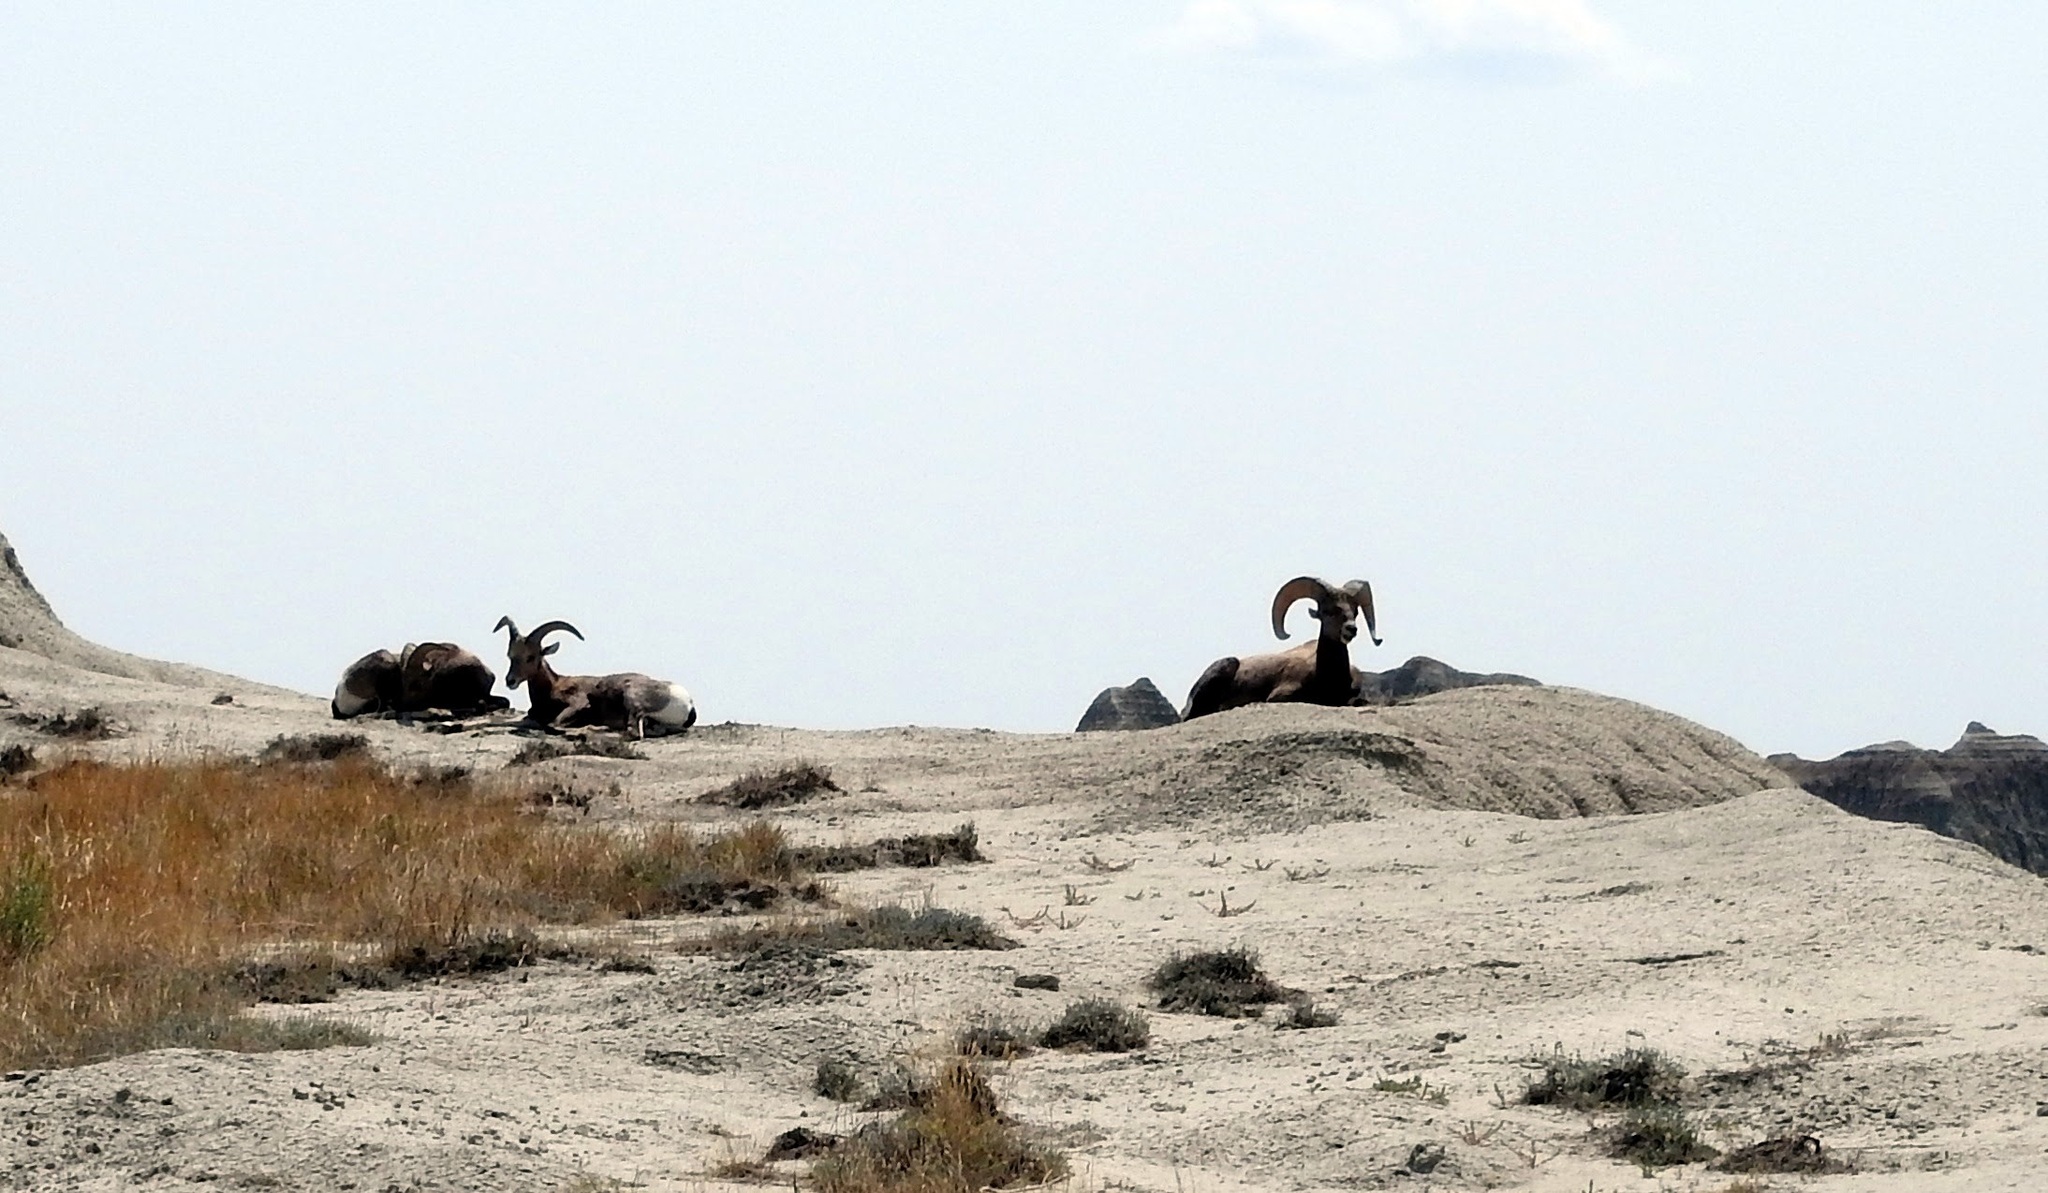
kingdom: Animalia
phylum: Chordata
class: Mammalia
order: Artiodactyla
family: Bovidae
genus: Ovis
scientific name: Ovis canadensis
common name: Bighorn sheep
